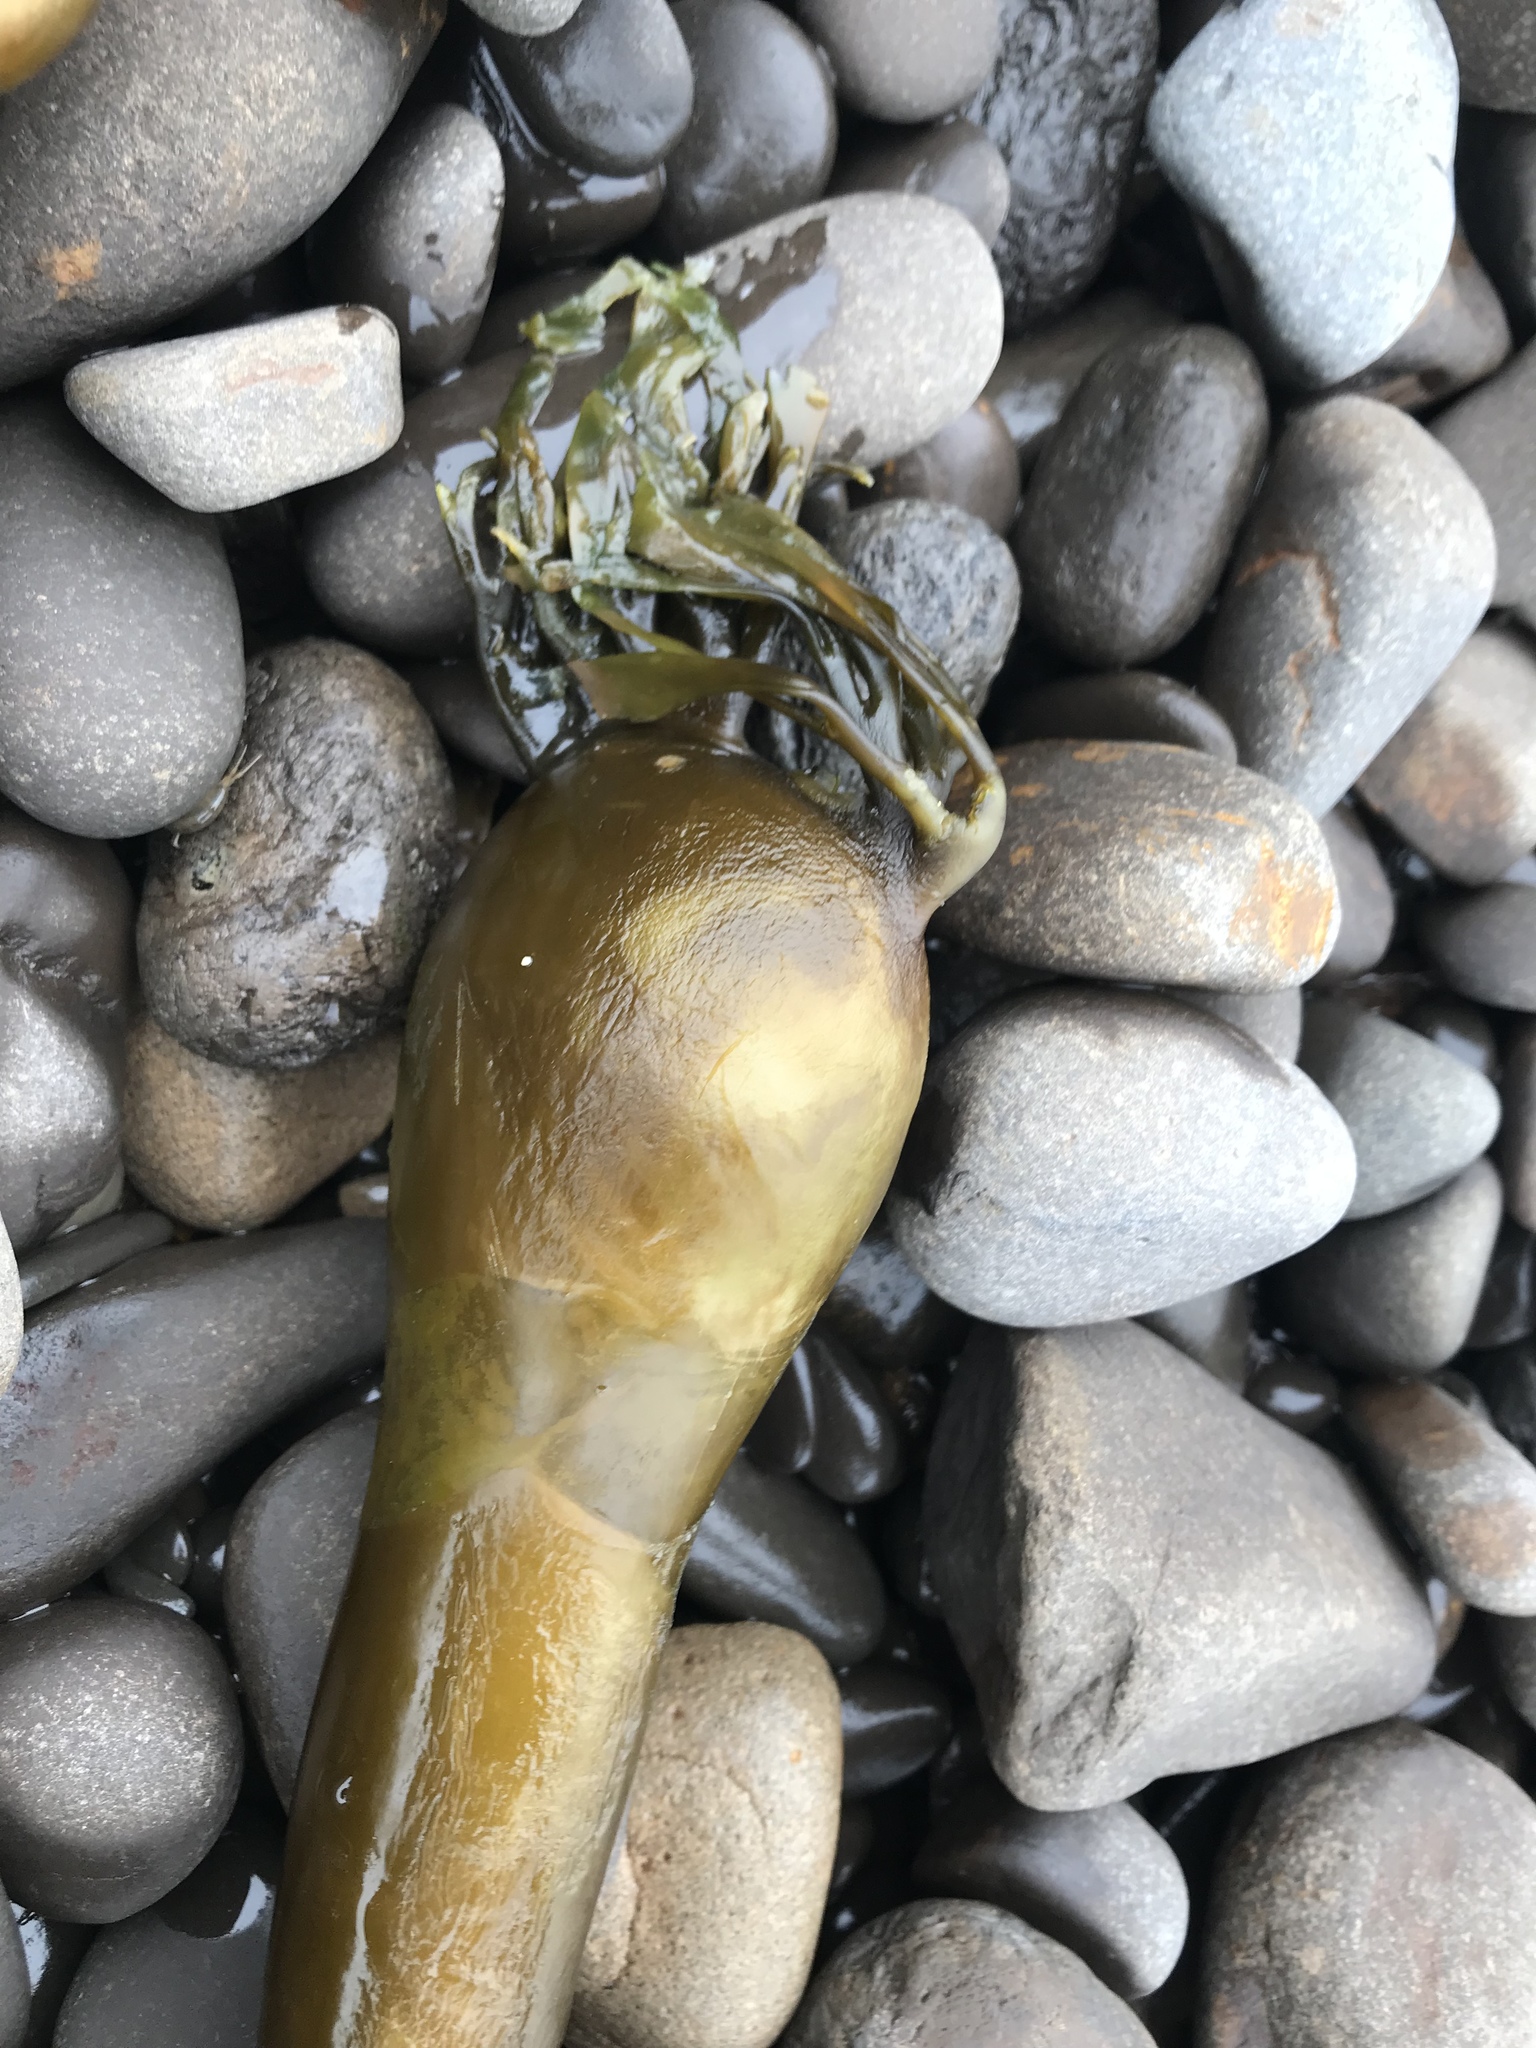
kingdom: Chromista
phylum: Ochrophyta
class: Phaeophyceae
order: Laminariales
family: Laminariaceae
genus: Nereocystis
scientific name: Nereocystis luetkeana
